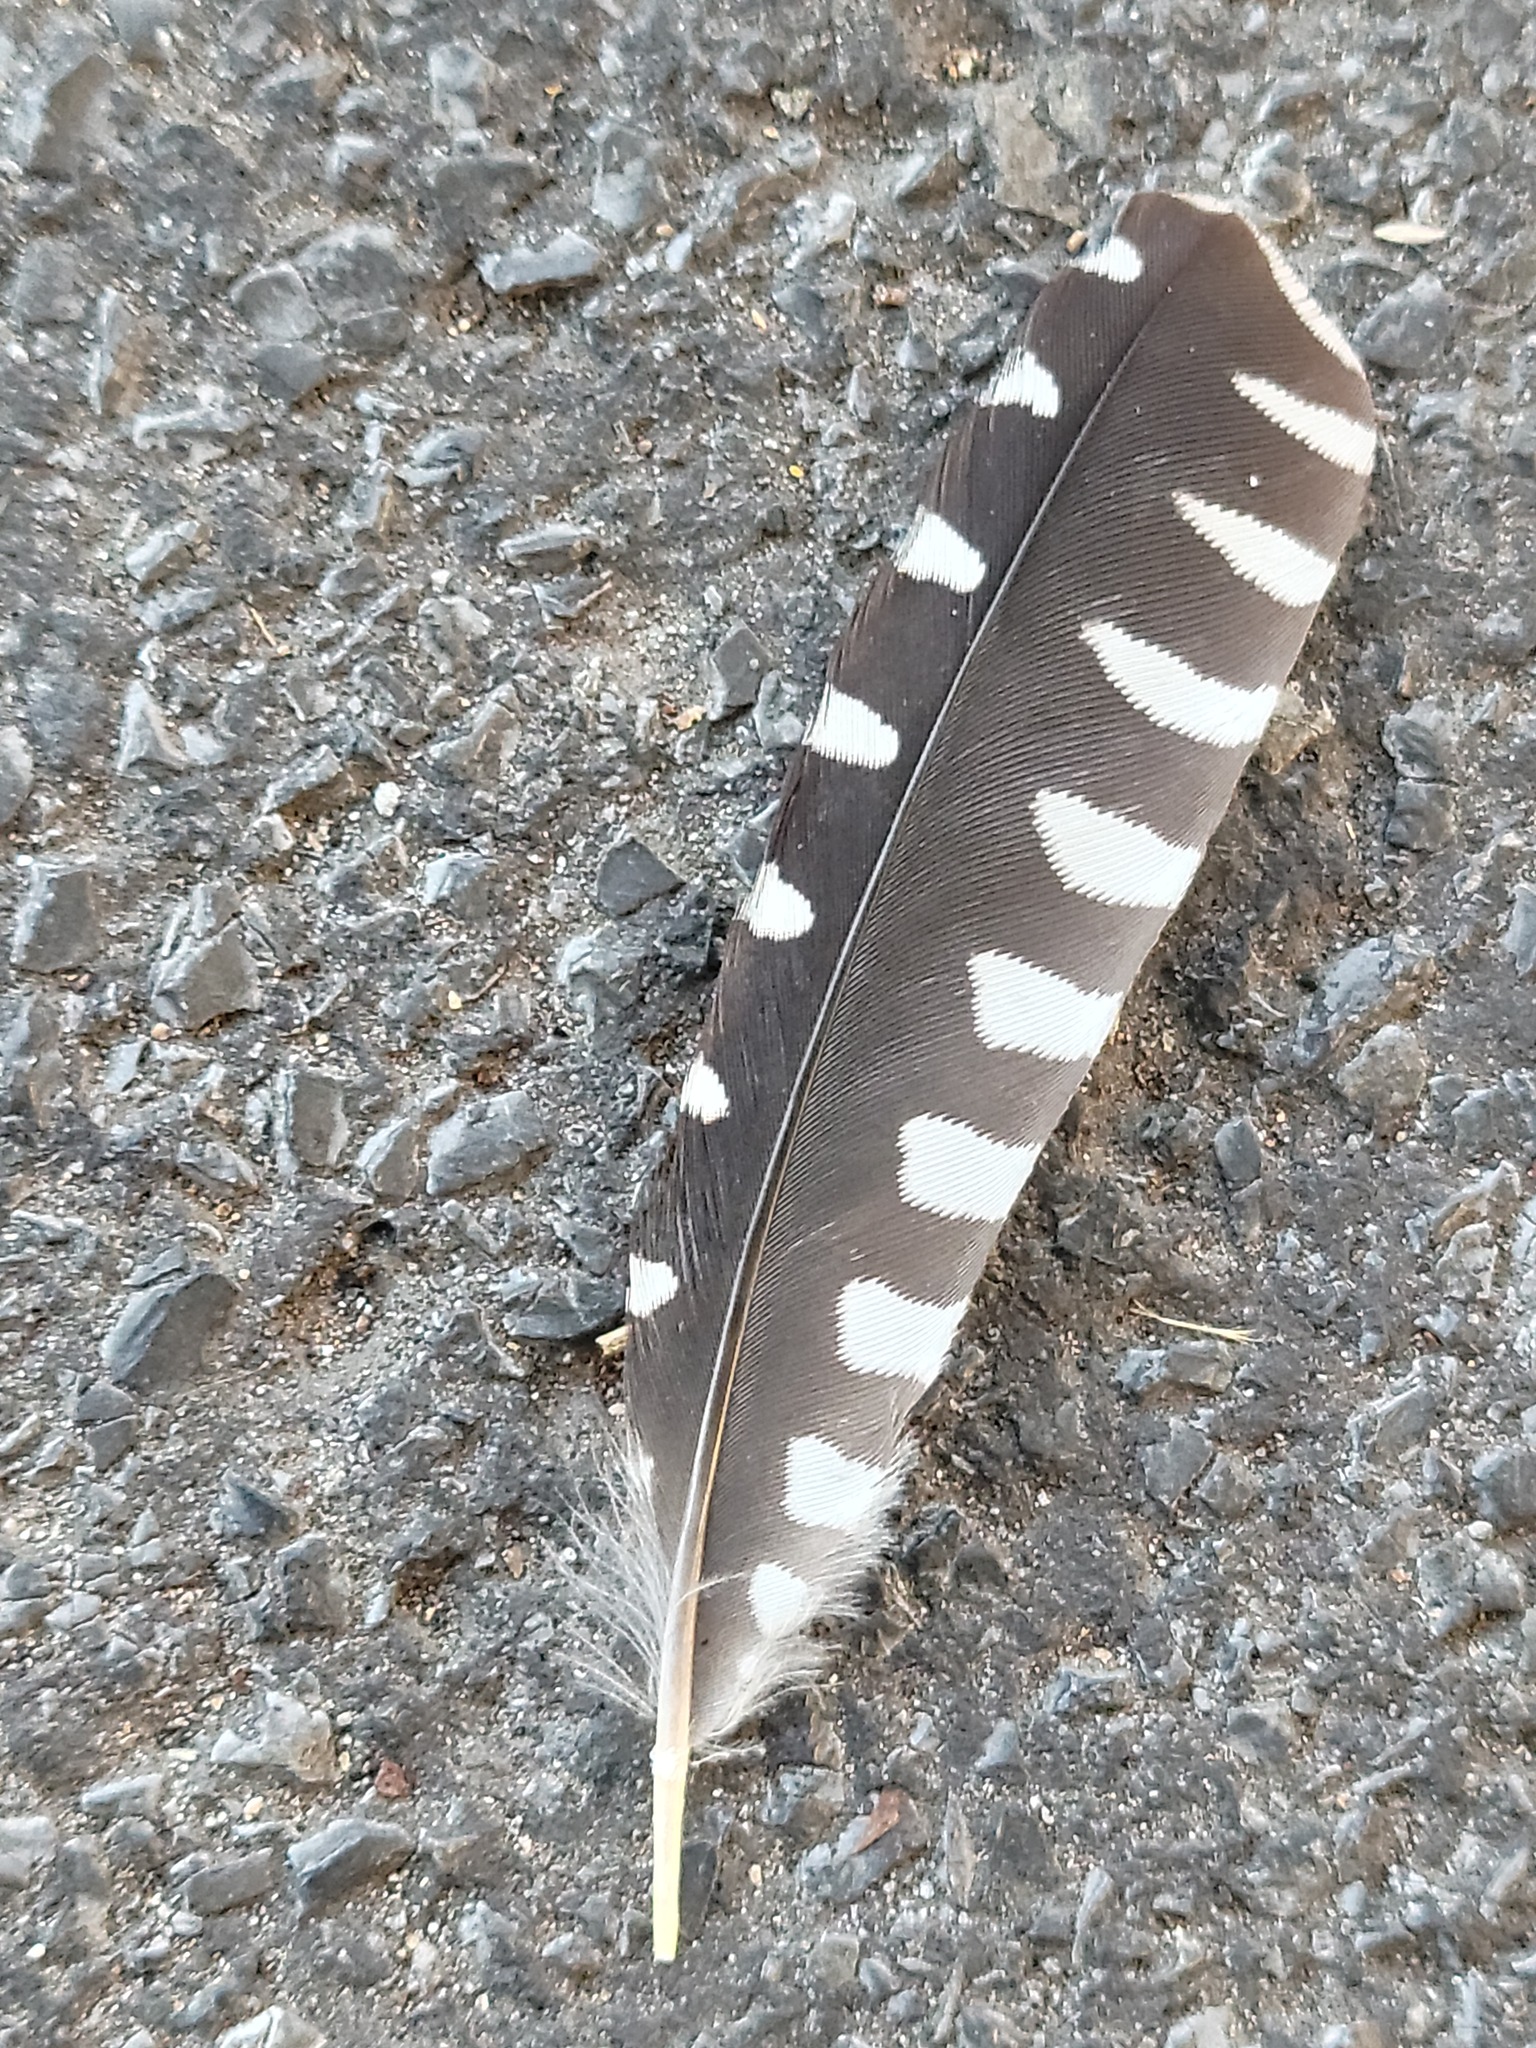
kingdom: Animalia
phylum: Chordata
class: Aves
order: Piciformes
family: Picidae
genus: Melanerpes
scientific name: Melanerpes aurifrons
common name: Golden-fronted woodpecker
